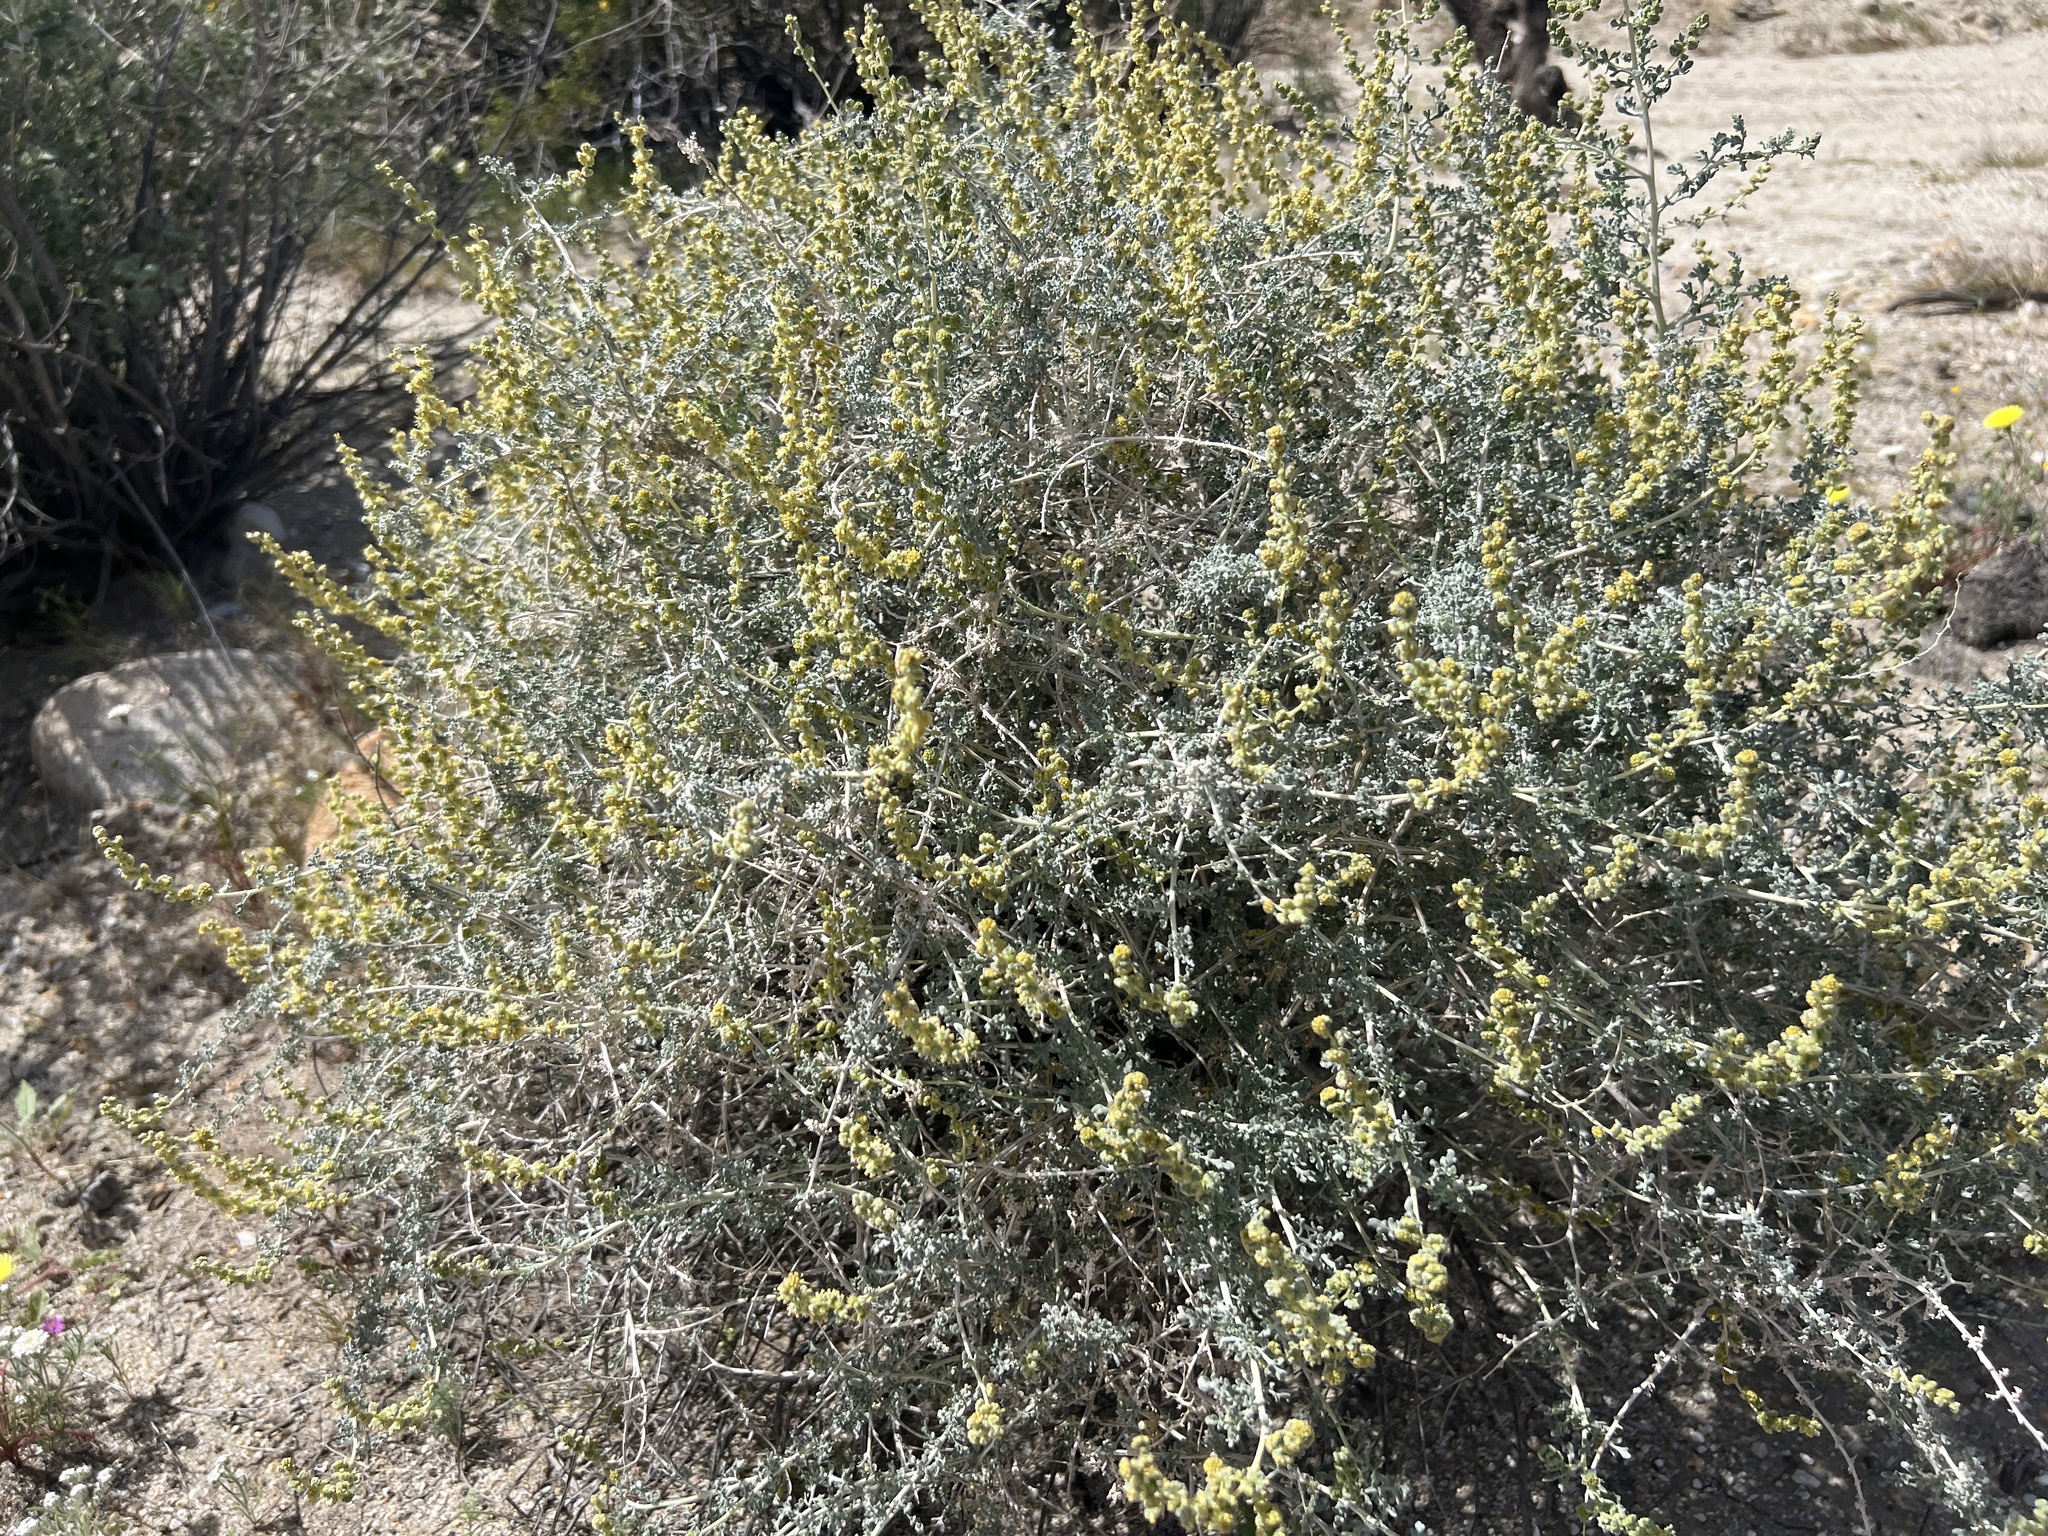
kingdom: Plantae
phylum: Tracheophyta
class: Magnoliopsida
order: Asterales
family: Asteraceae
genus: Ambrosia
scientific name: Ambrosia dumosa
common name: Bur-sage
